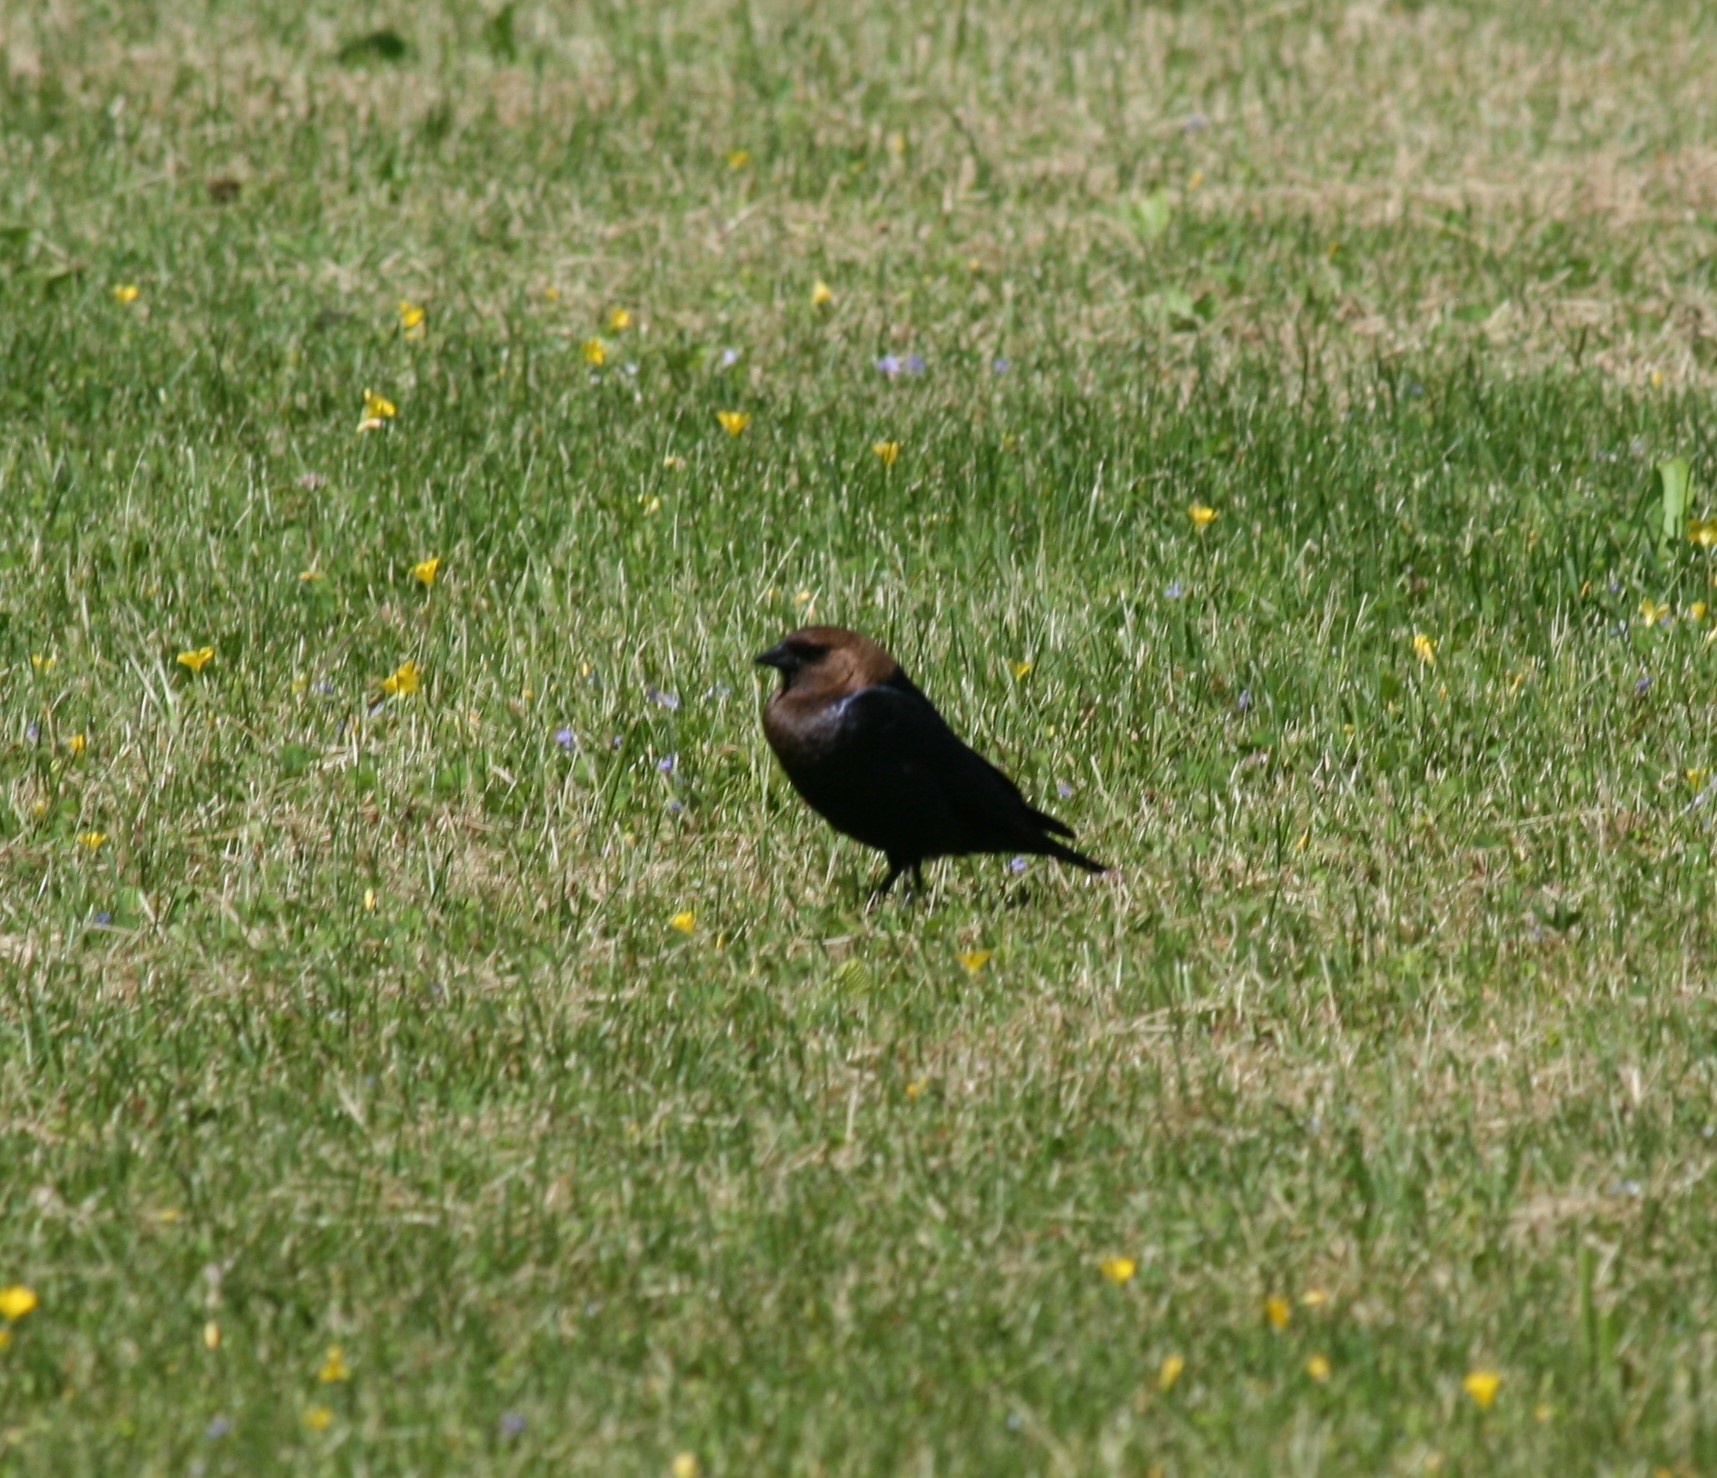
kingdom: Animalia
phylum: Chordata
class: Aves
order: Passeriformes
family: Icteridae
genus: Molothrus
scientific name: Molothrus ater
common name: Brown-headed cowbird
